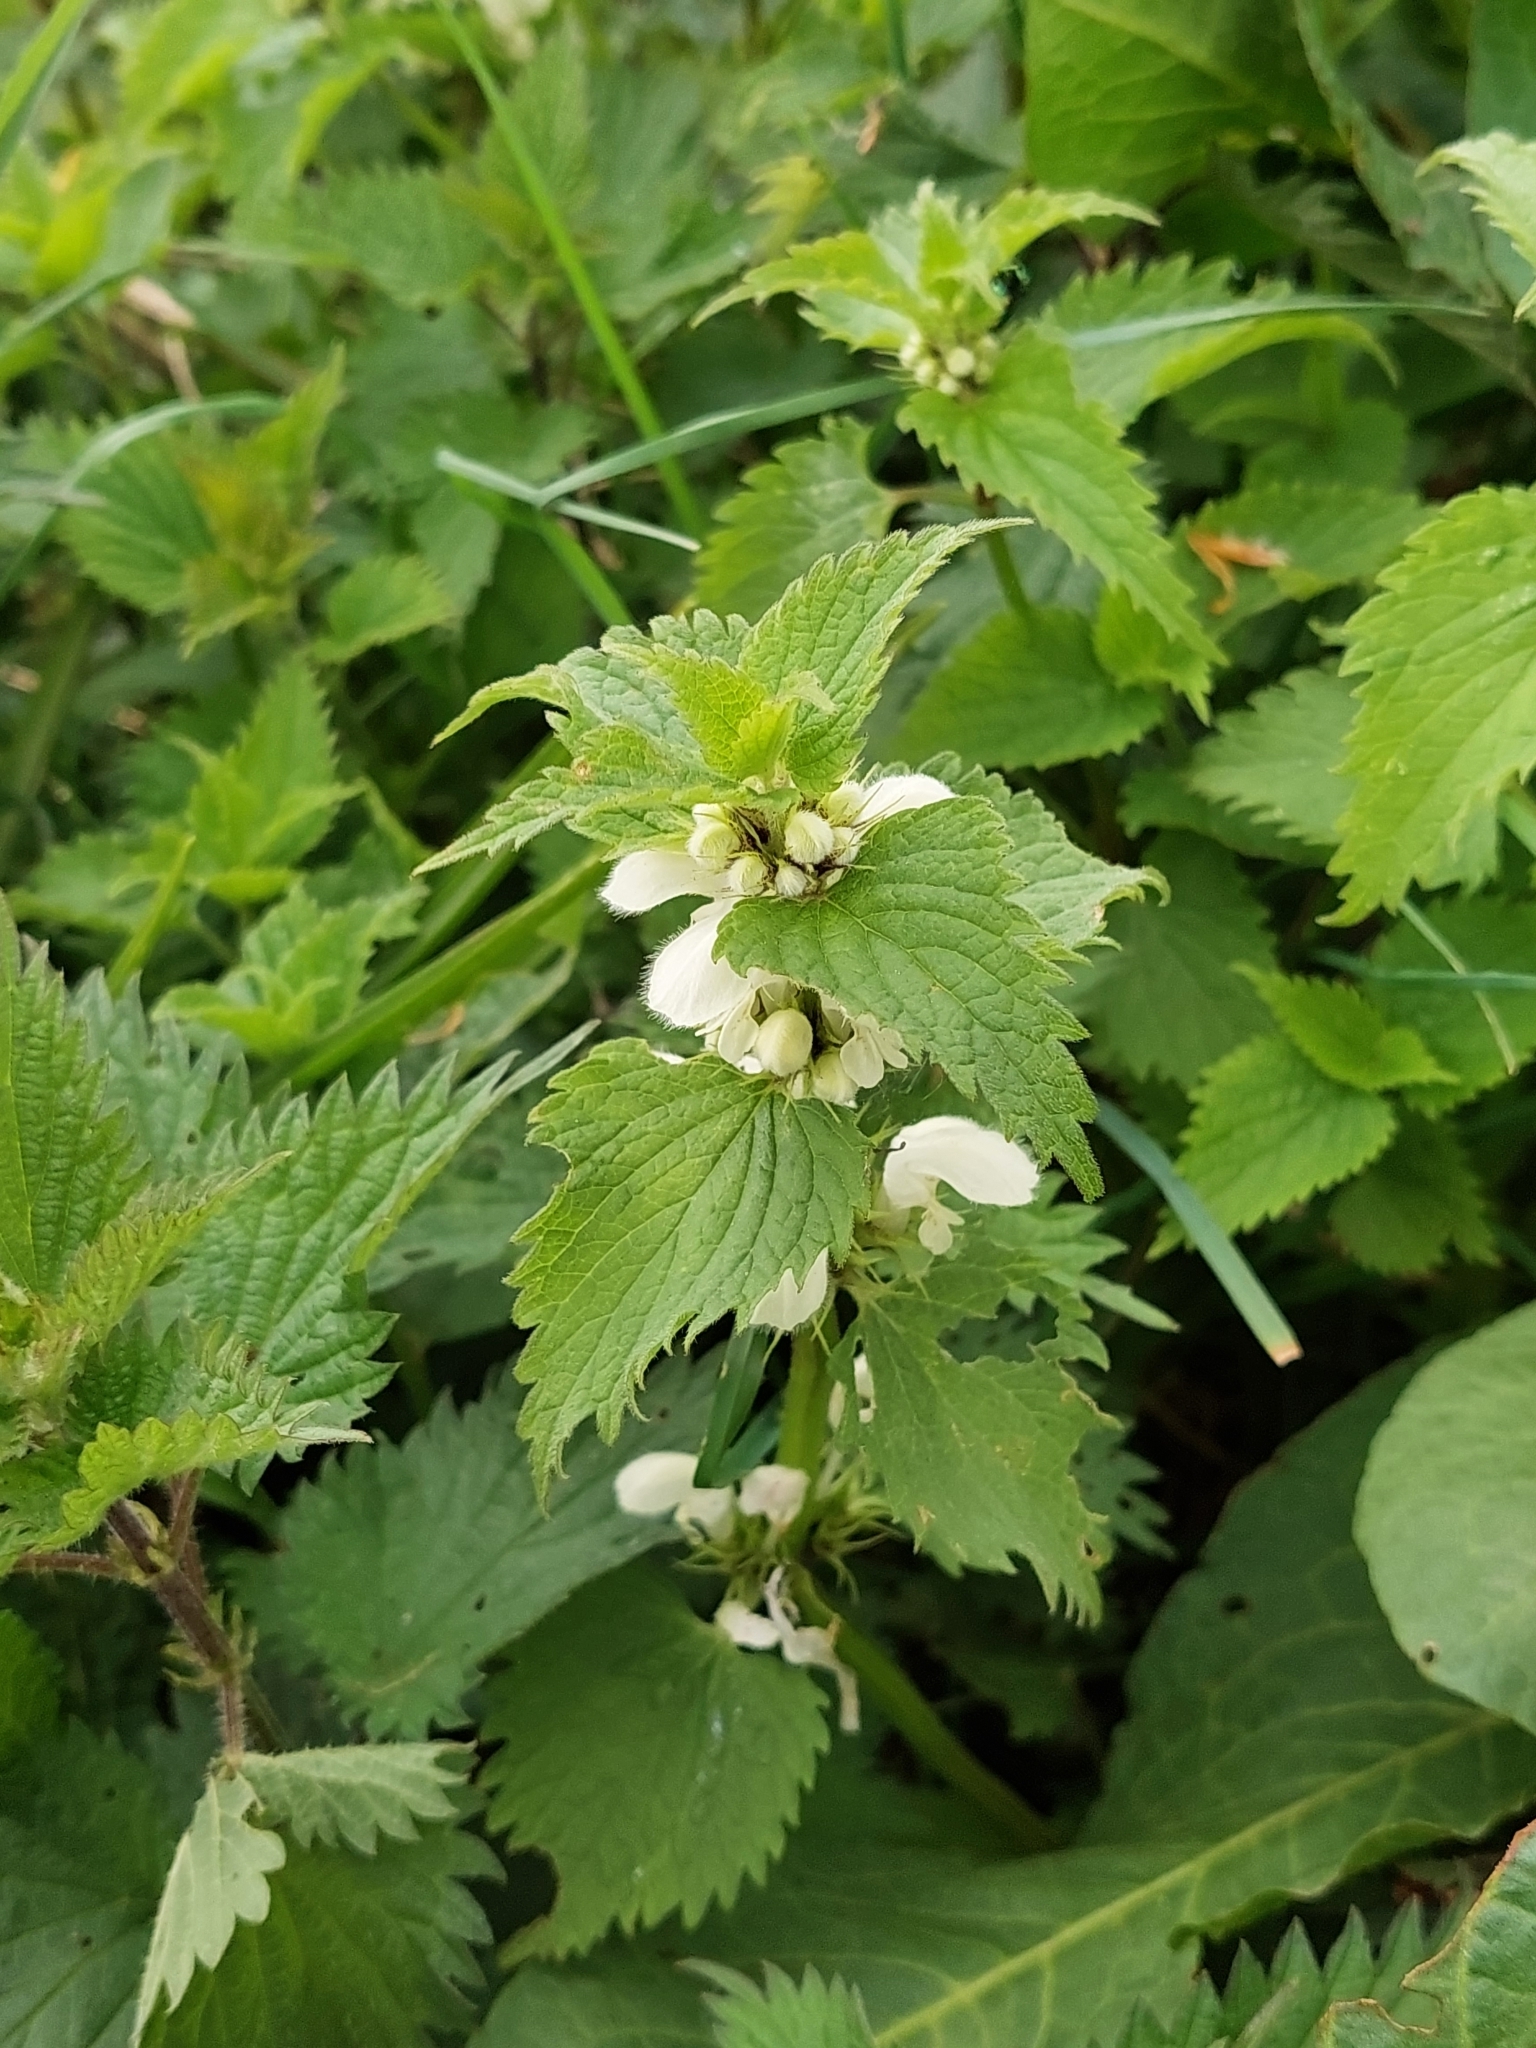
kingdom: Plantae
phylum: Tracheophyta
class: Magnoliopsida
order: Lamiales
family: Lamiaceae
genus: Lamium
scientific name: Lamium album
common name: White dead-nettle
